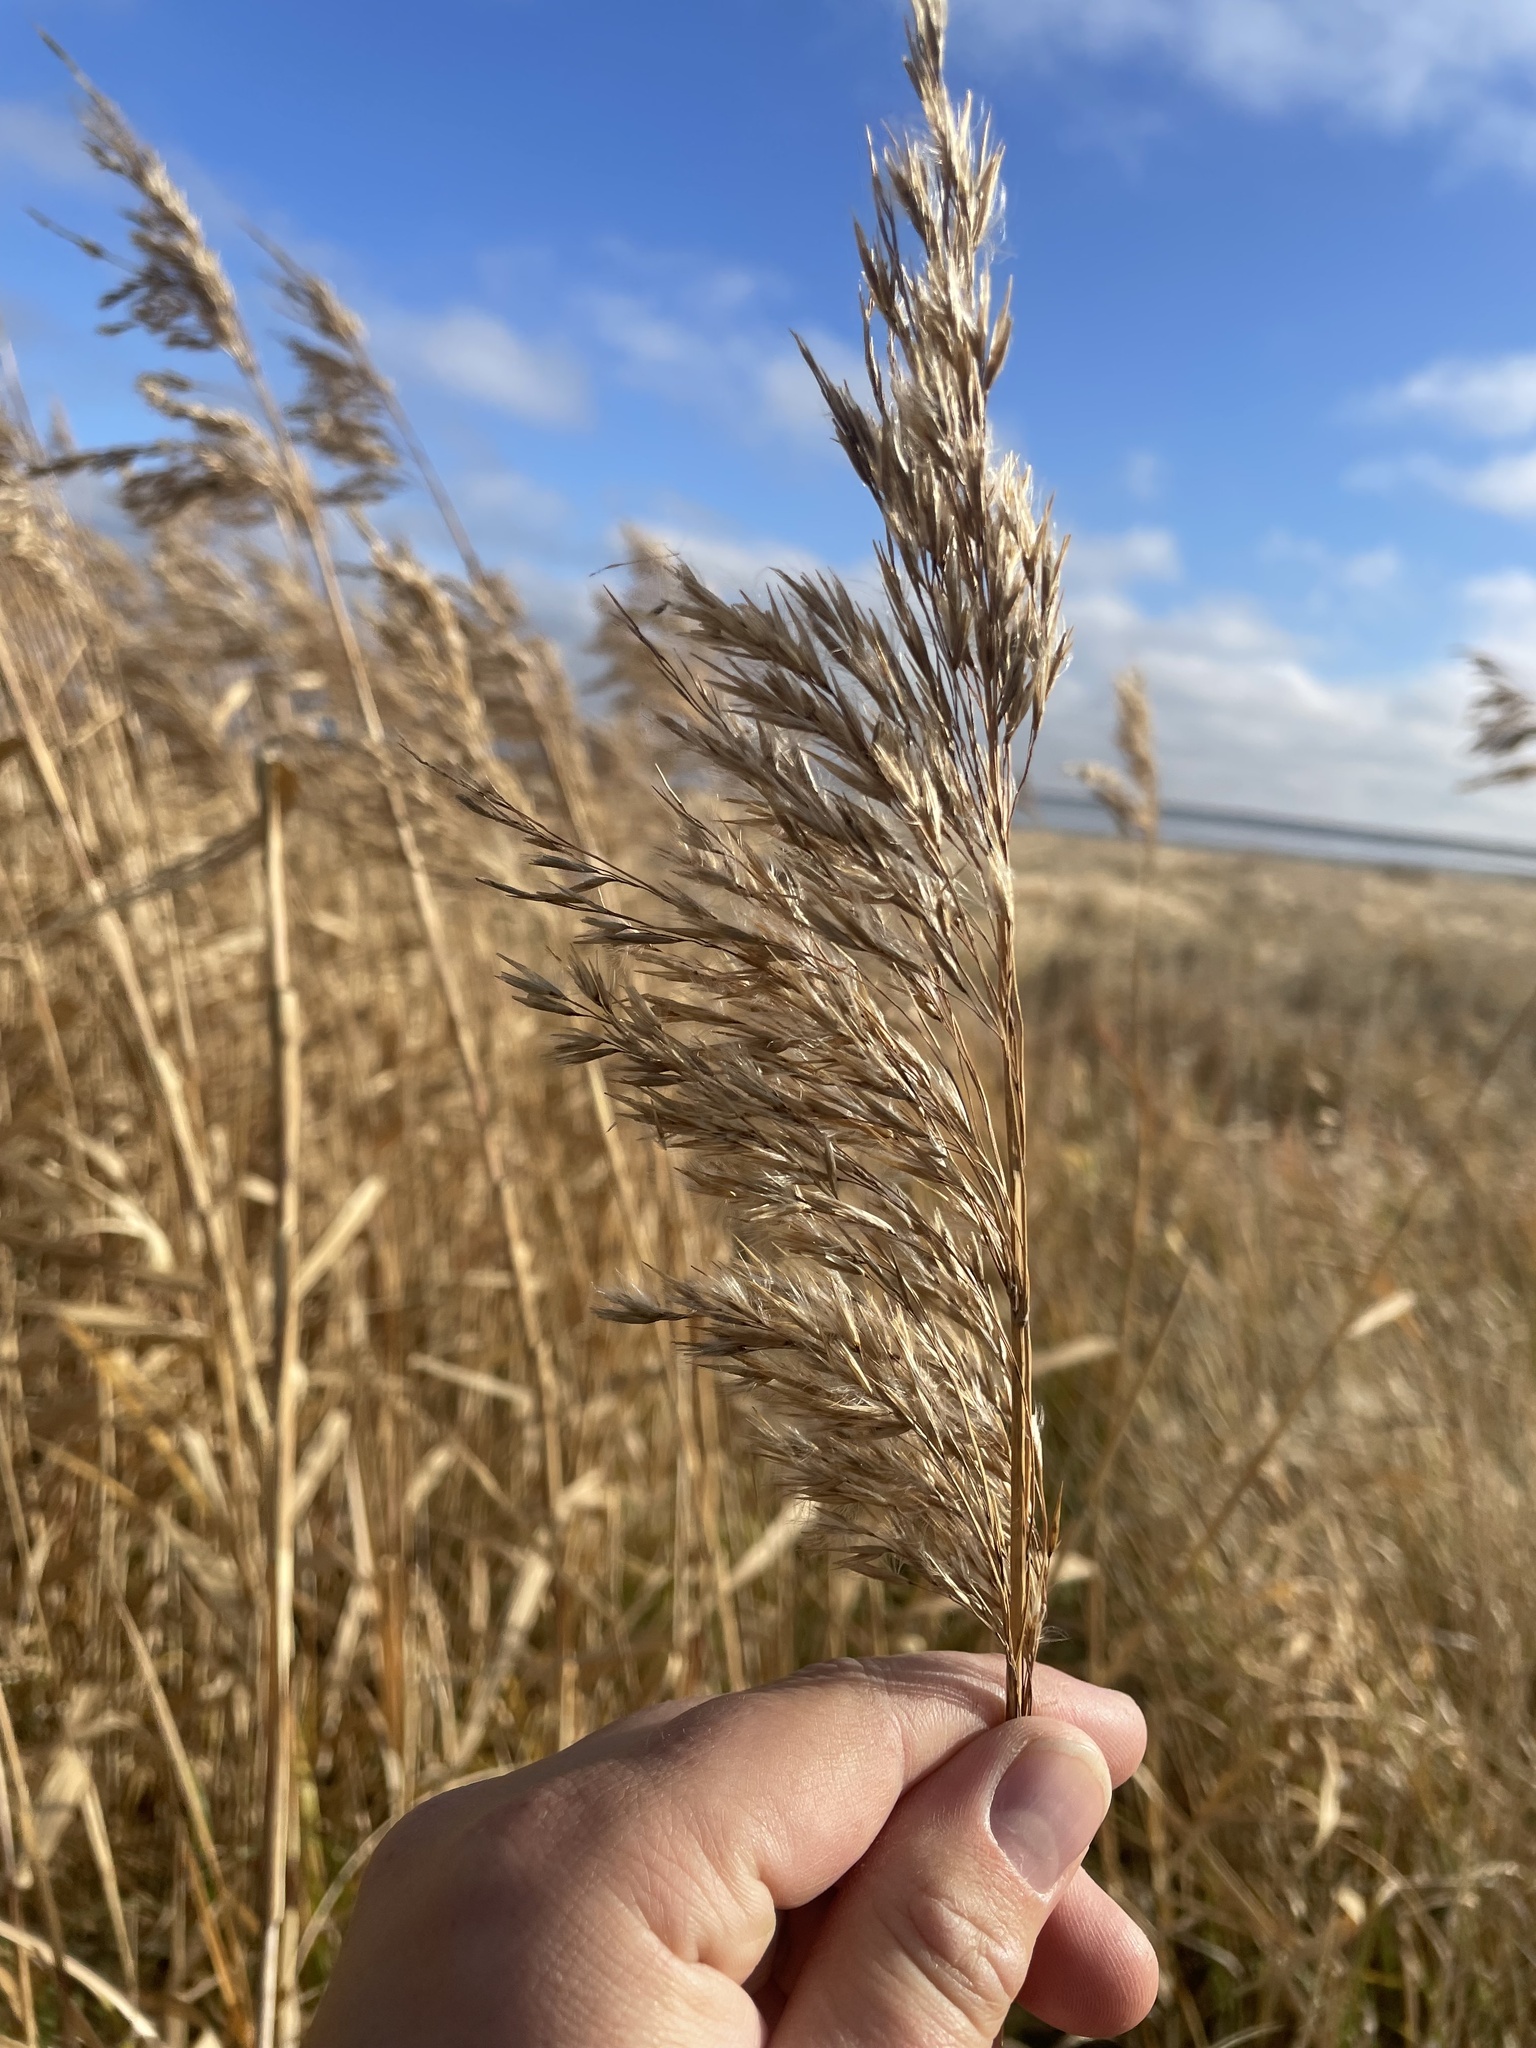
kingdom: Plantae
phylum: Tracheophyta
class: Liliopsida
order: Poales
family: Poaceae
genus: Phragmites
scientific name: Phragmites australis
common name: Common reed
